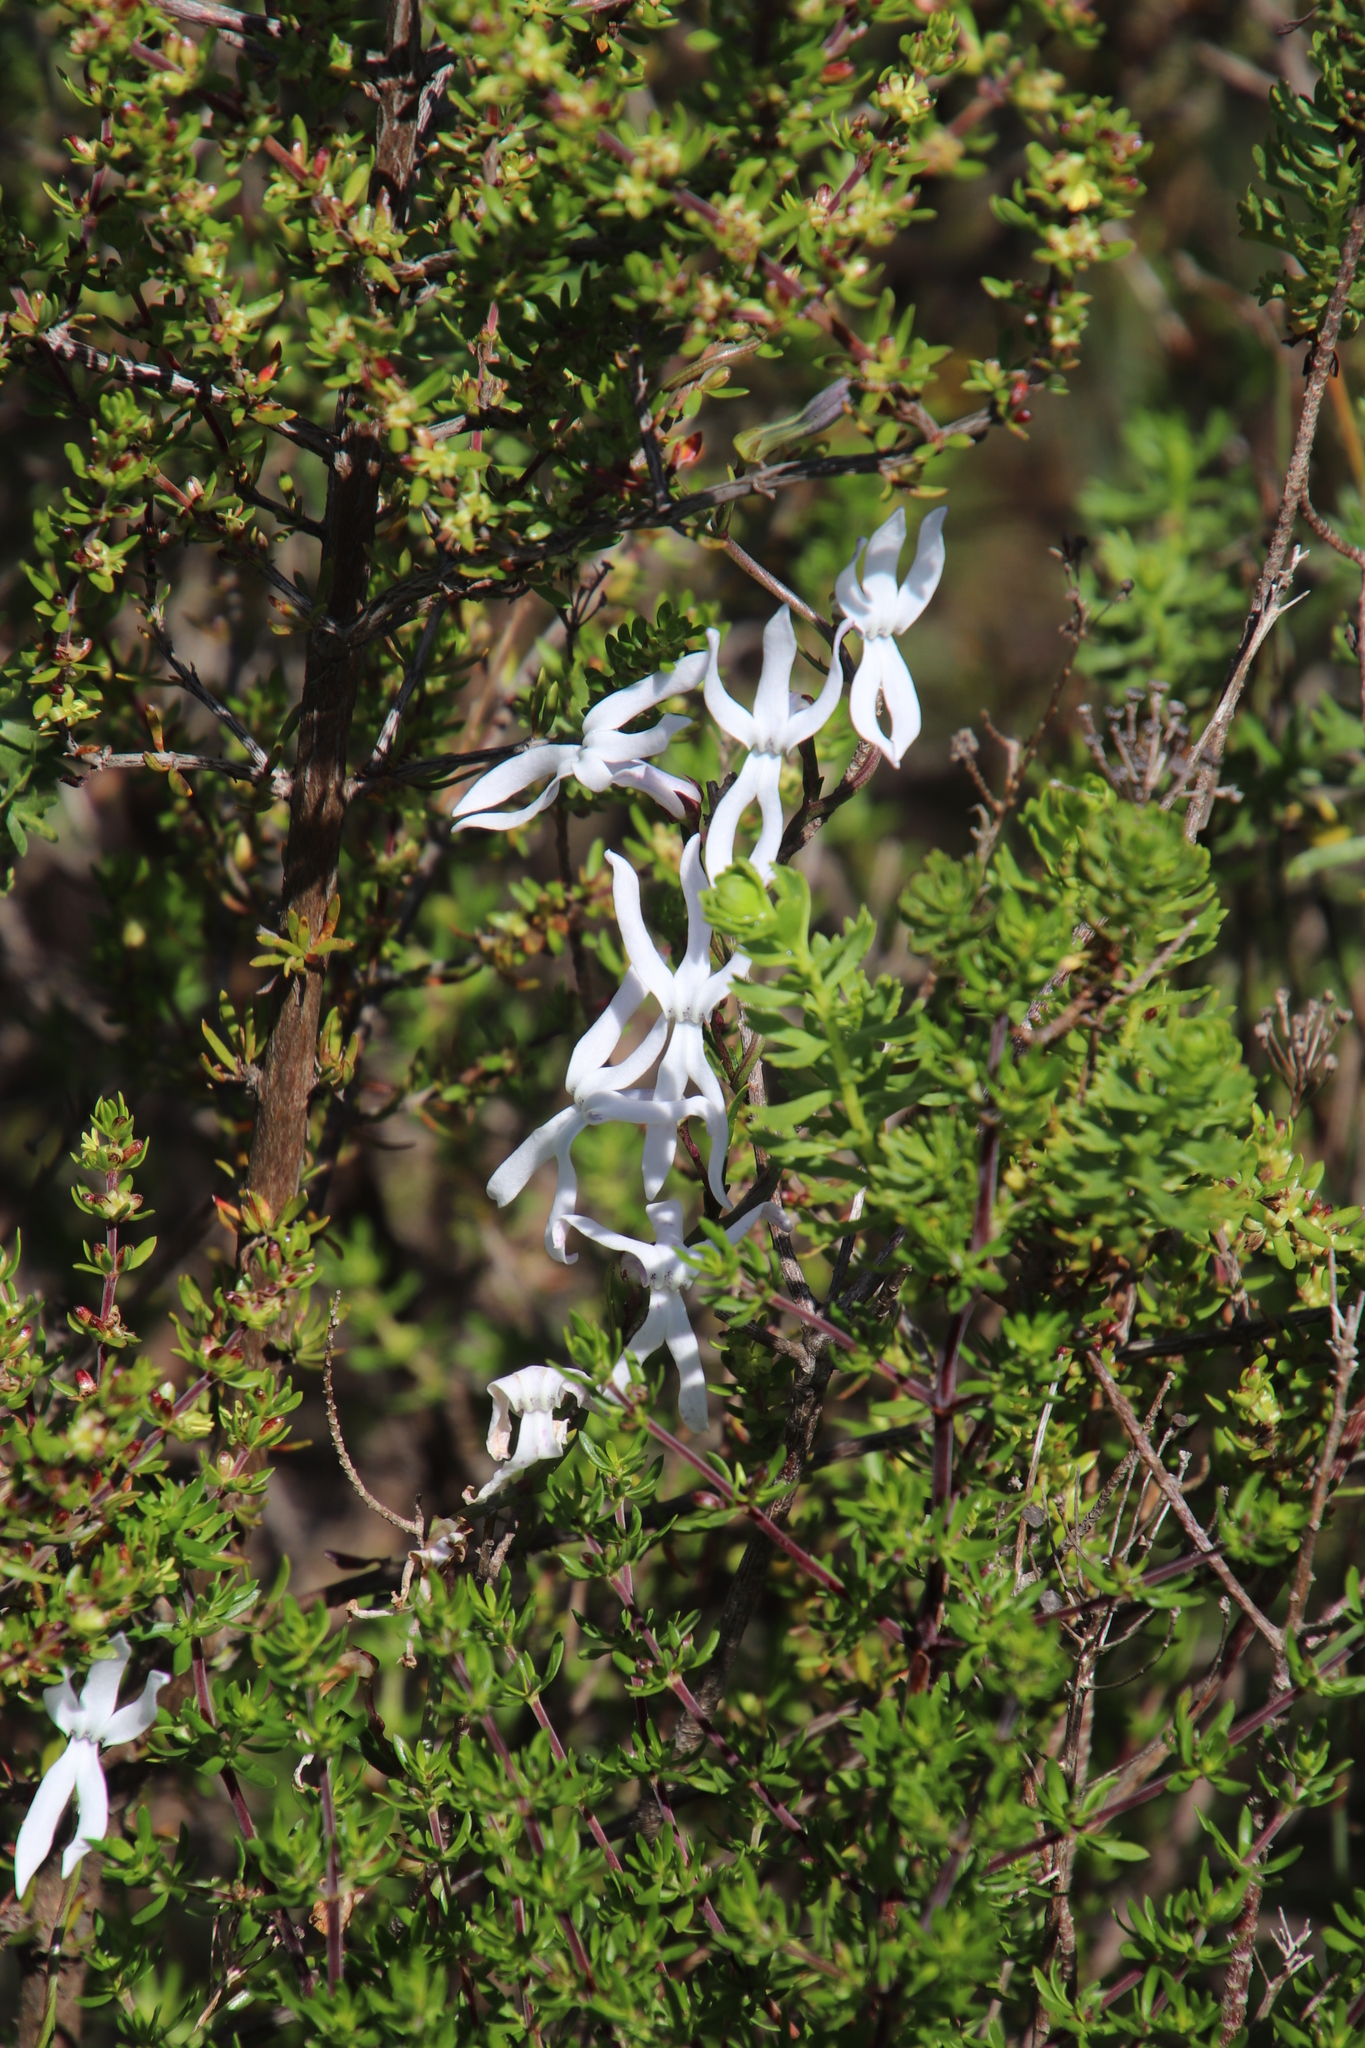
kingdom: Plantae
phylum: Tracheophyta
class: Magnoliopsida
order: Asterales
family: Campanulaceae
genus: Cyphia
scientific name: Cyphia volubilis
